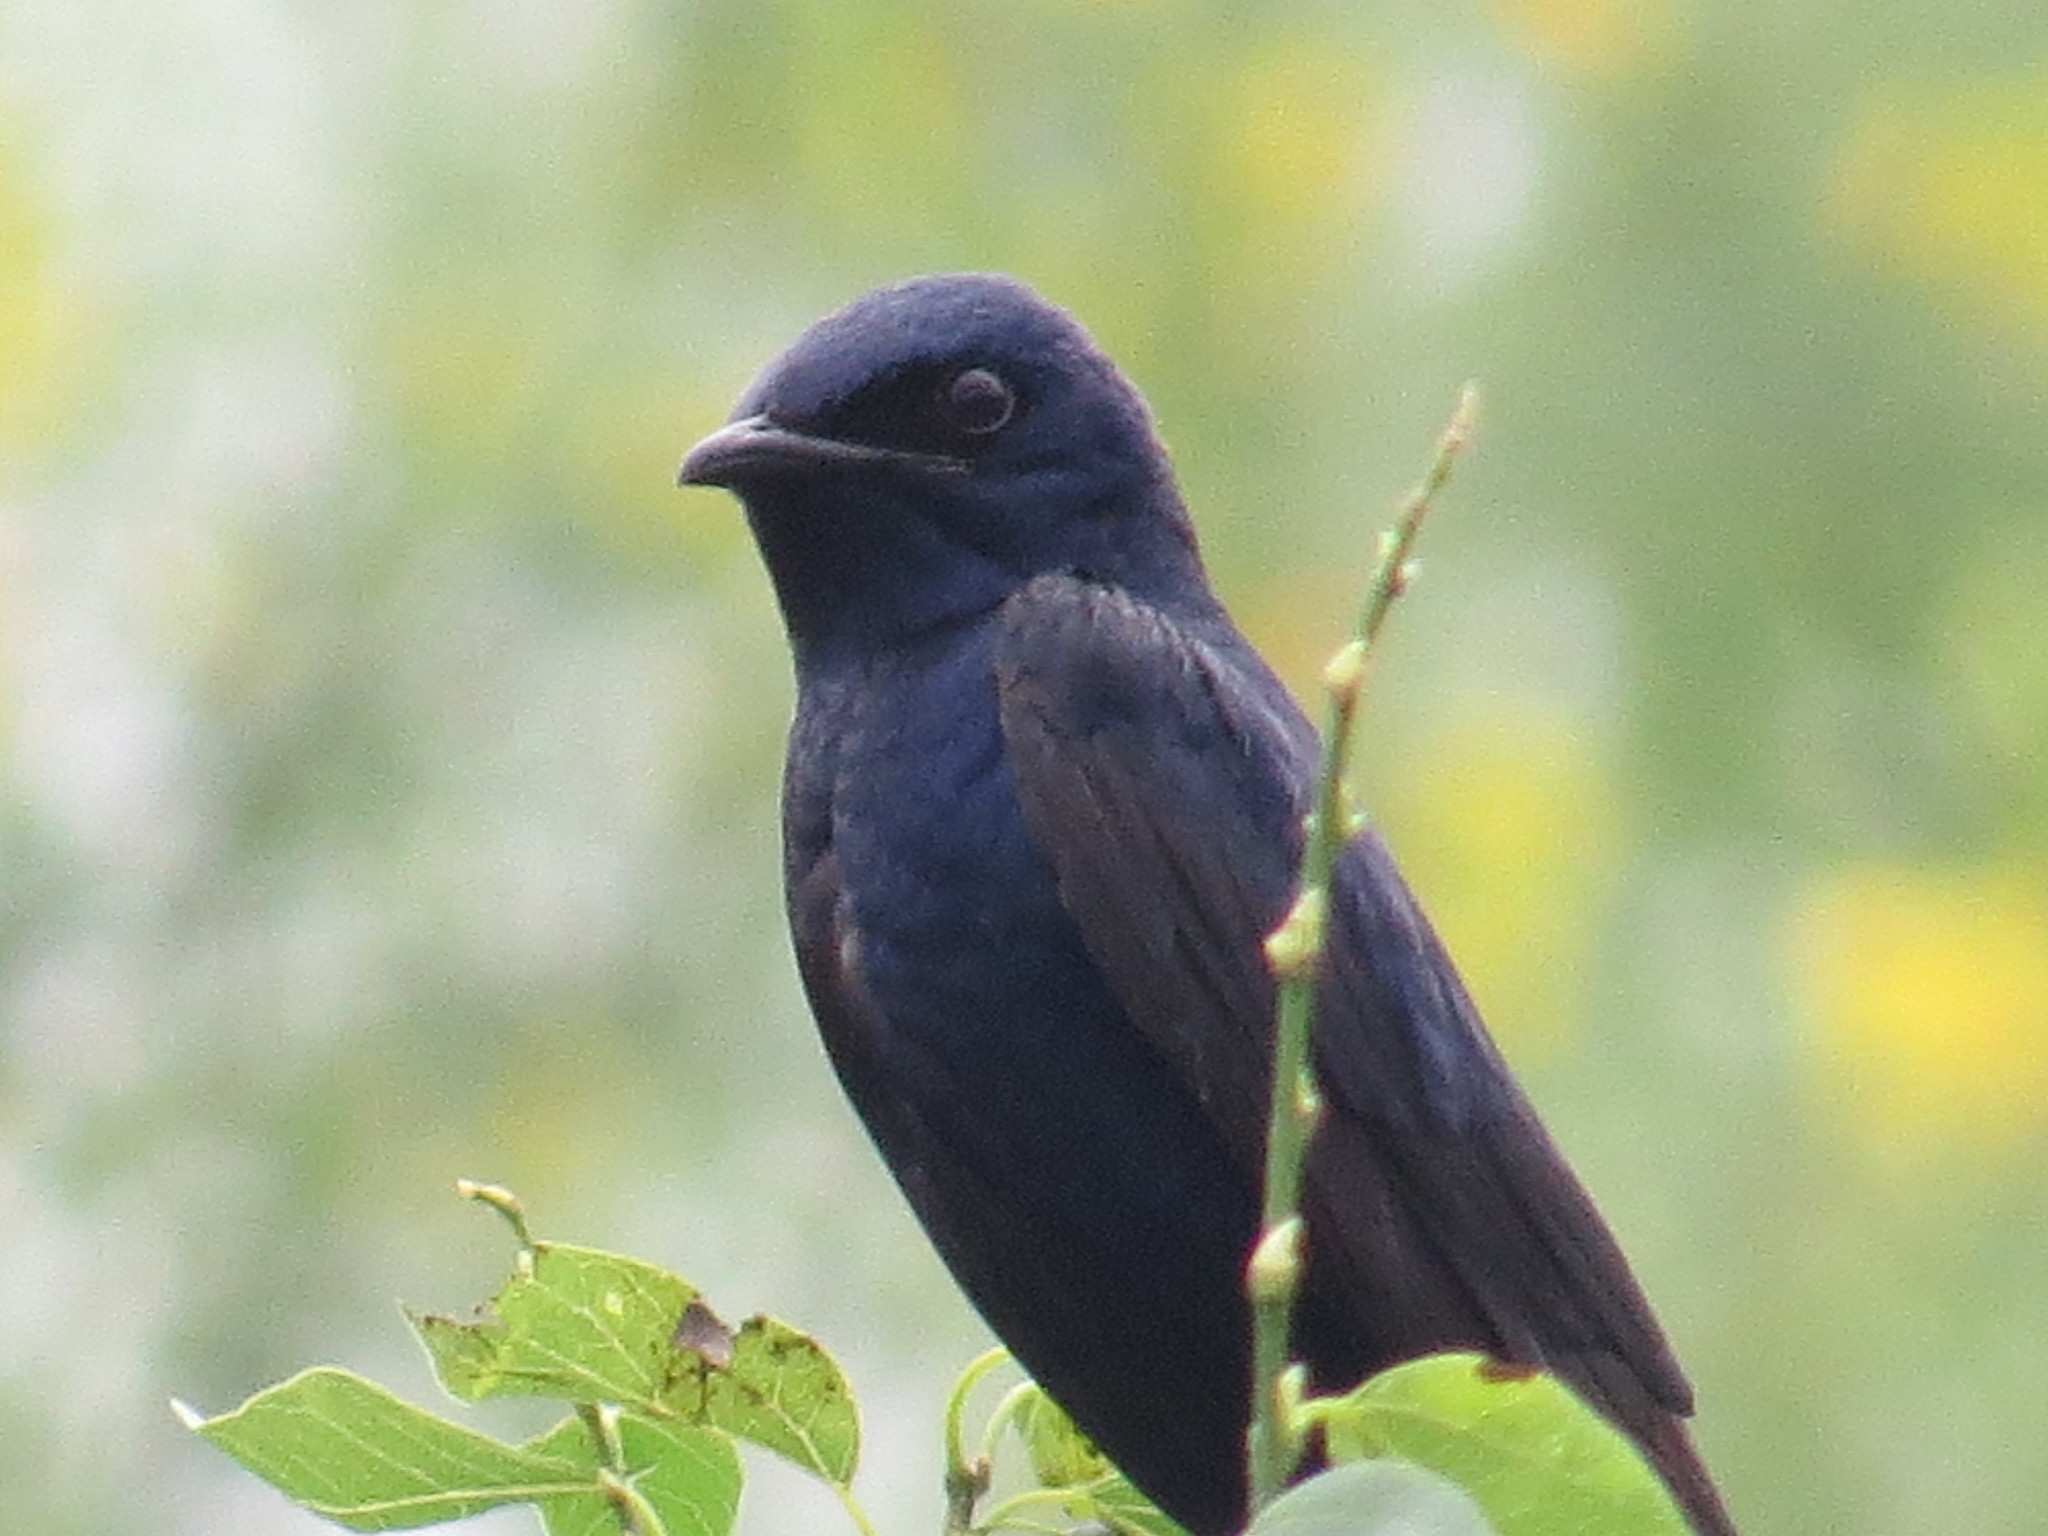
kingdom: Animalia
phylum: Chordata
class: Aves
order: Passeriformes
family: Hirundinidae
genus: Progne
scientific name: Progne subis
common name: Purple martin
